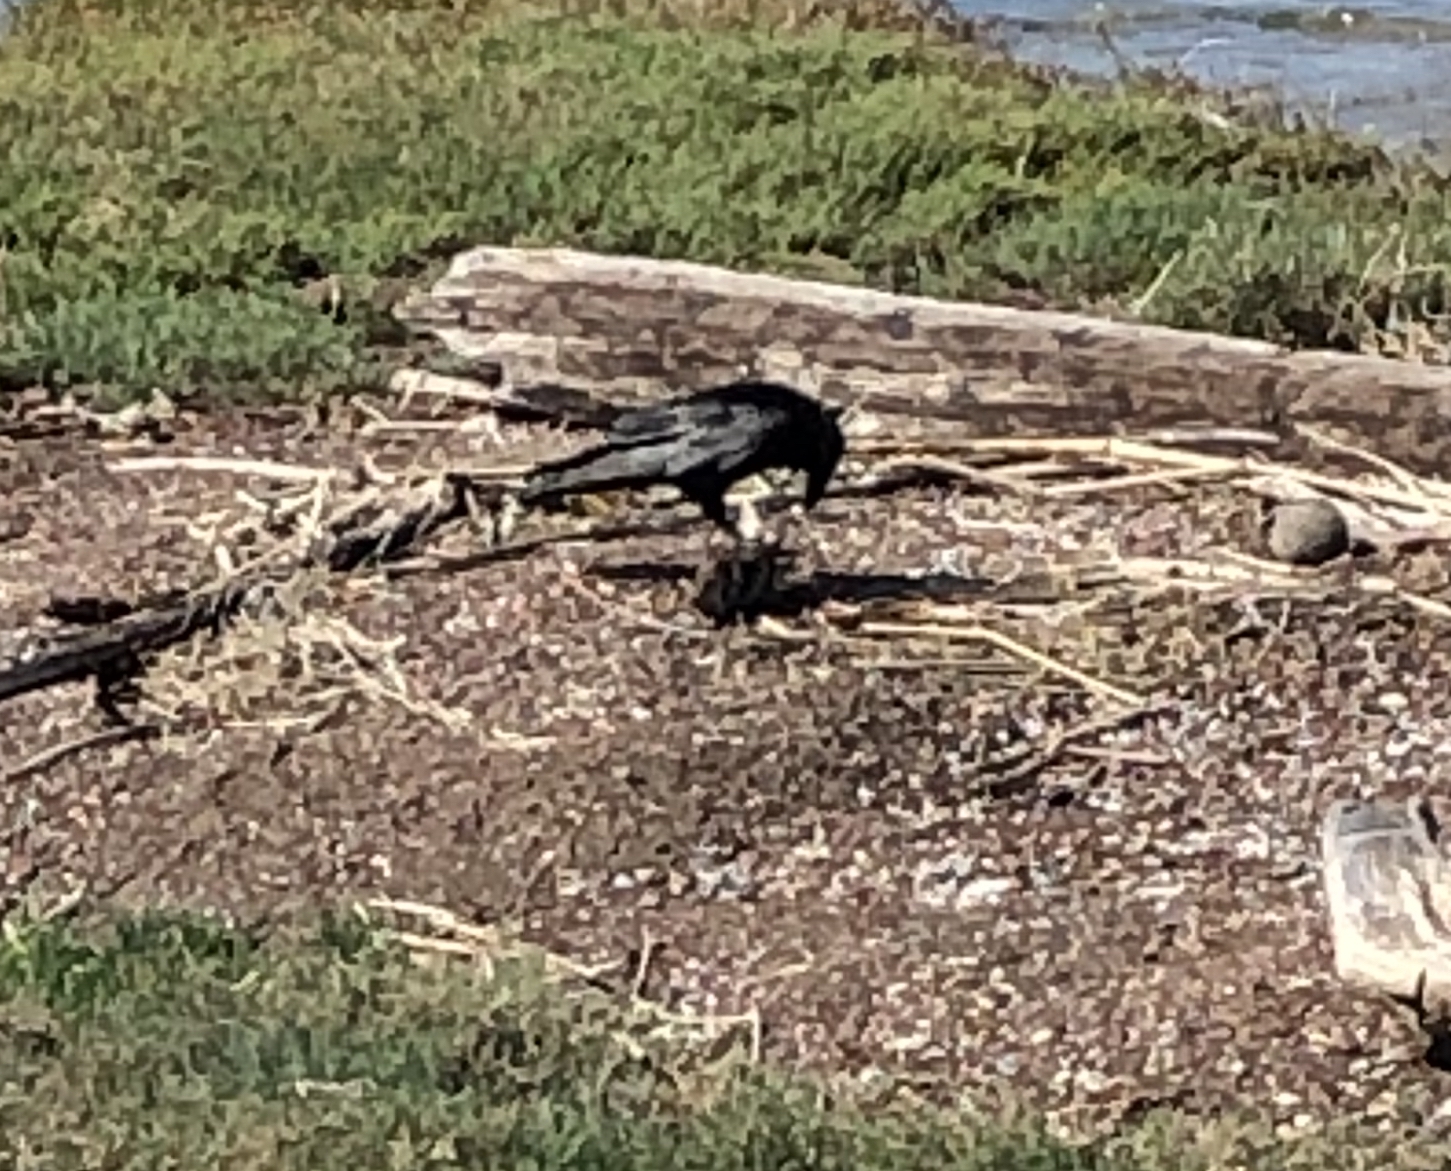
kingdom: Animalia
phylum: Chordata
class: Aves
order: Passeriformes
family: Corvidae
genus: Corvus
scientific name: Corvus corax
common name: Common raven
